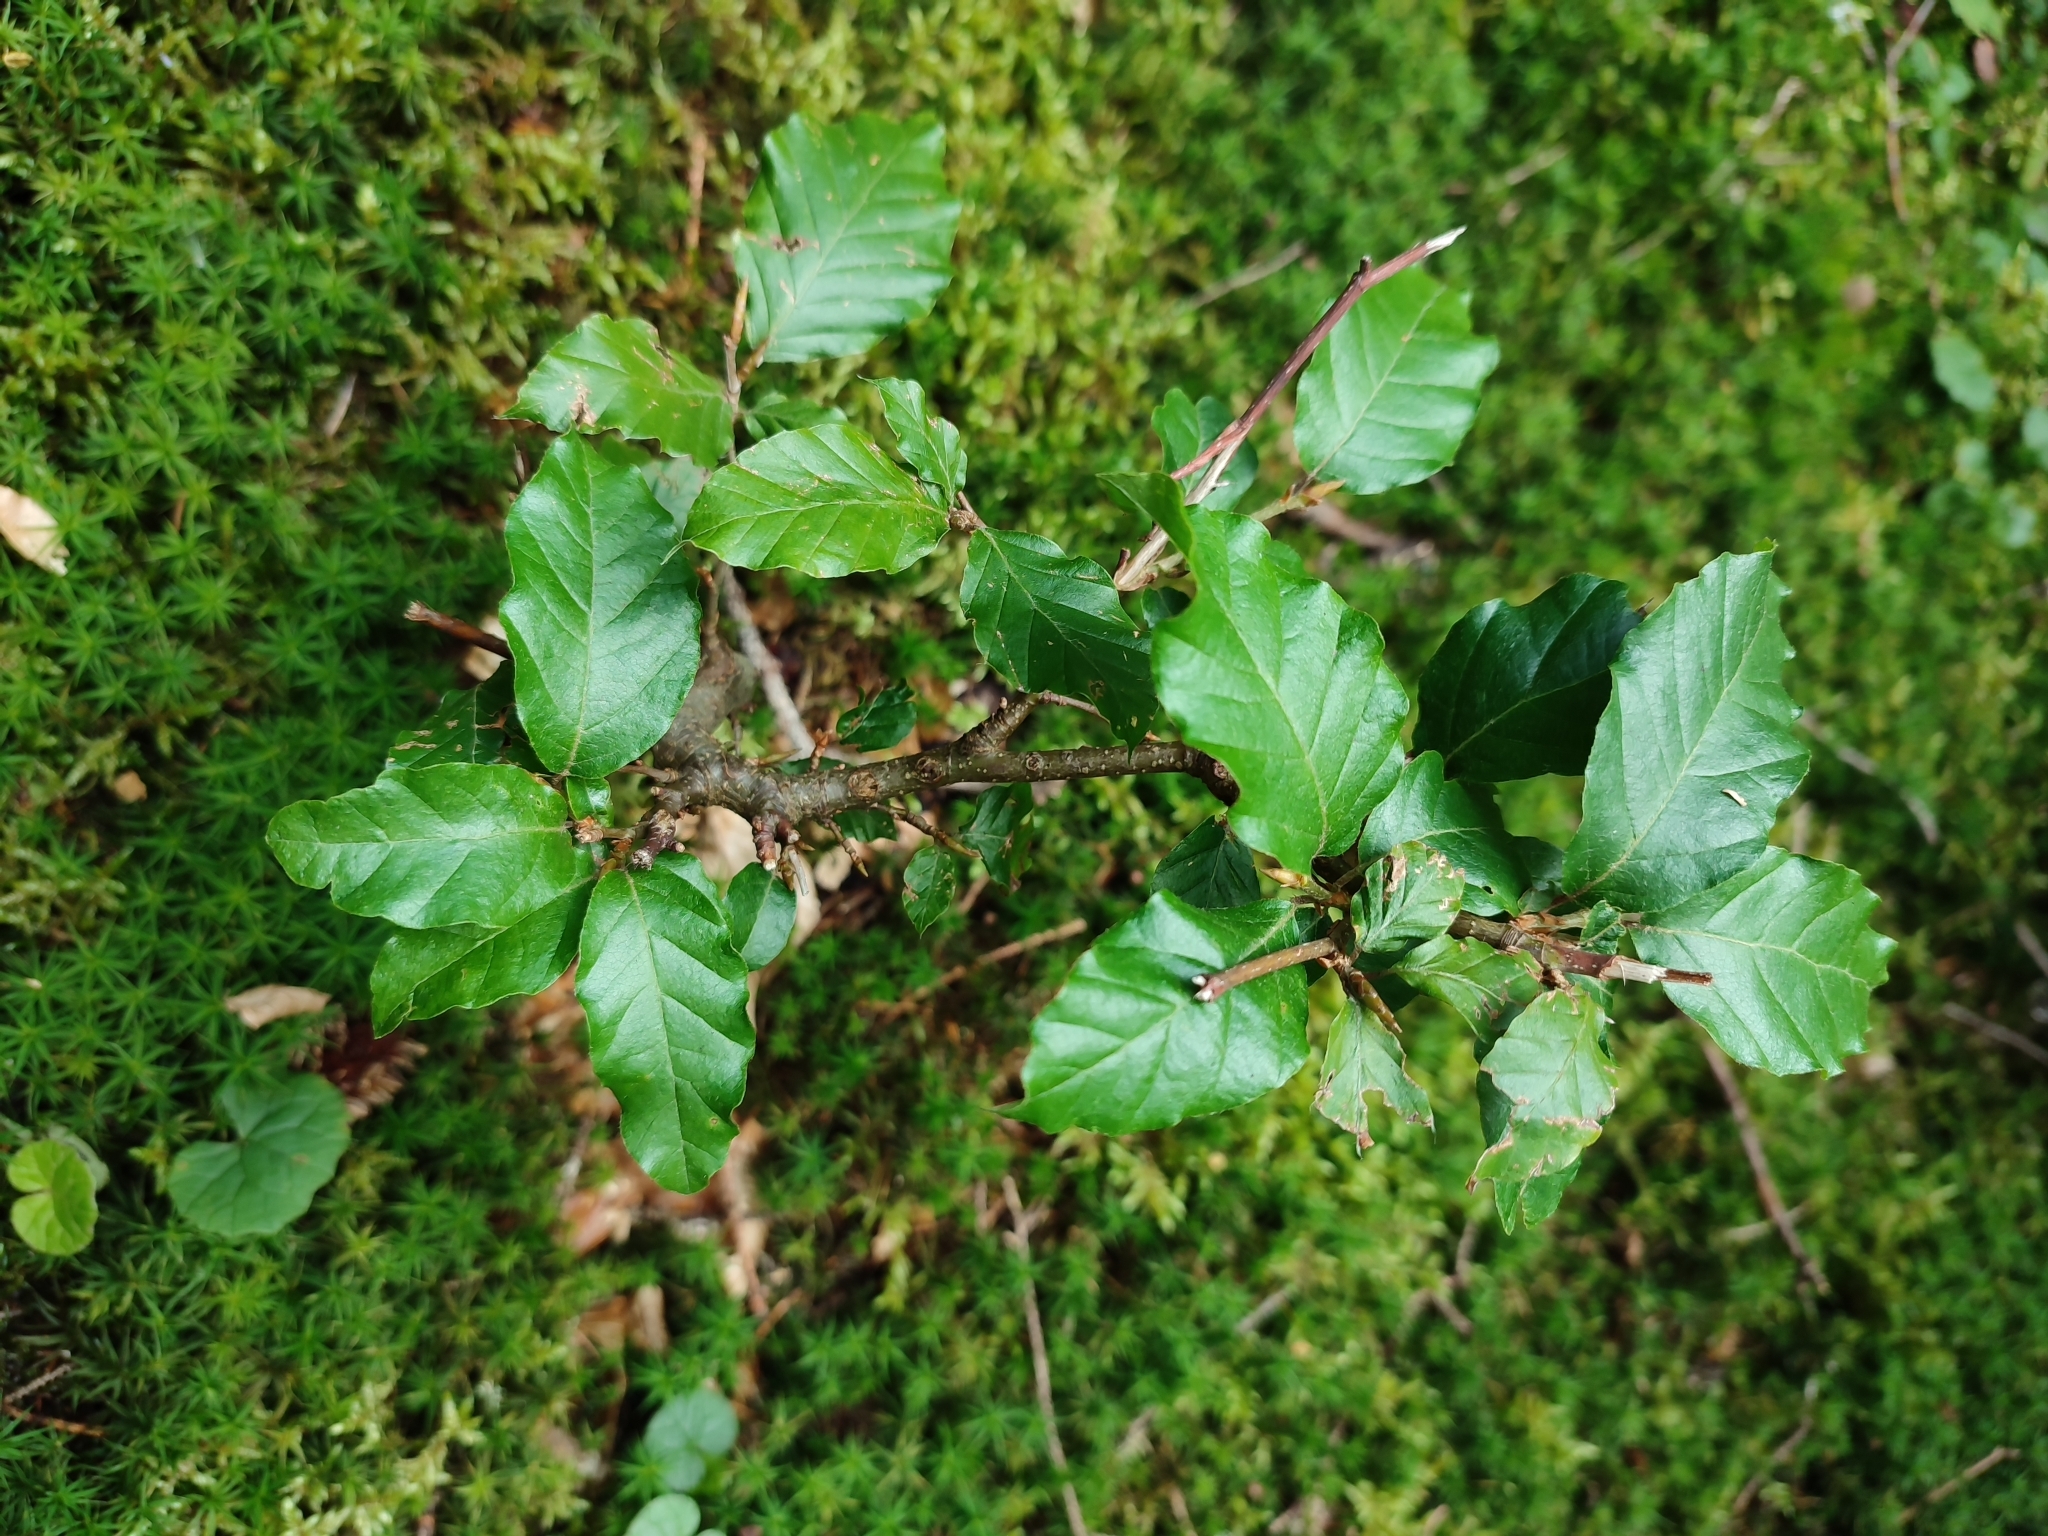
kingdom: Plantae
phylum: Tracheophyta
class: Magnoliopsida
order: Fagales
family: Fagaceae
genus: Fagus
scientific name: Fagus sylvatica
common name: Beech
